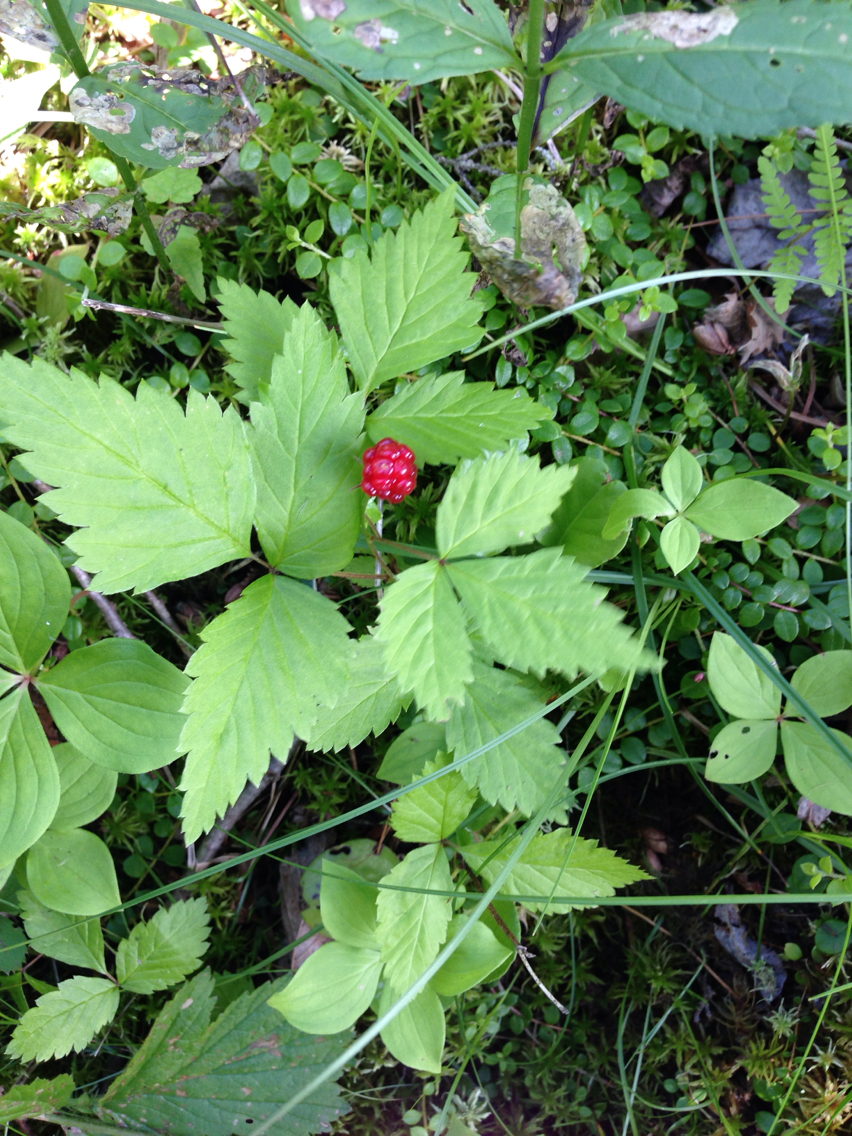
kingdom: Plantae
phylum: Tracheophyta
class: Magnoliopsida
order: Rosales
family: Rosaceae
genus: Rubus
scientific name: Rubus pubescens
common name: Dwarf raspberry
